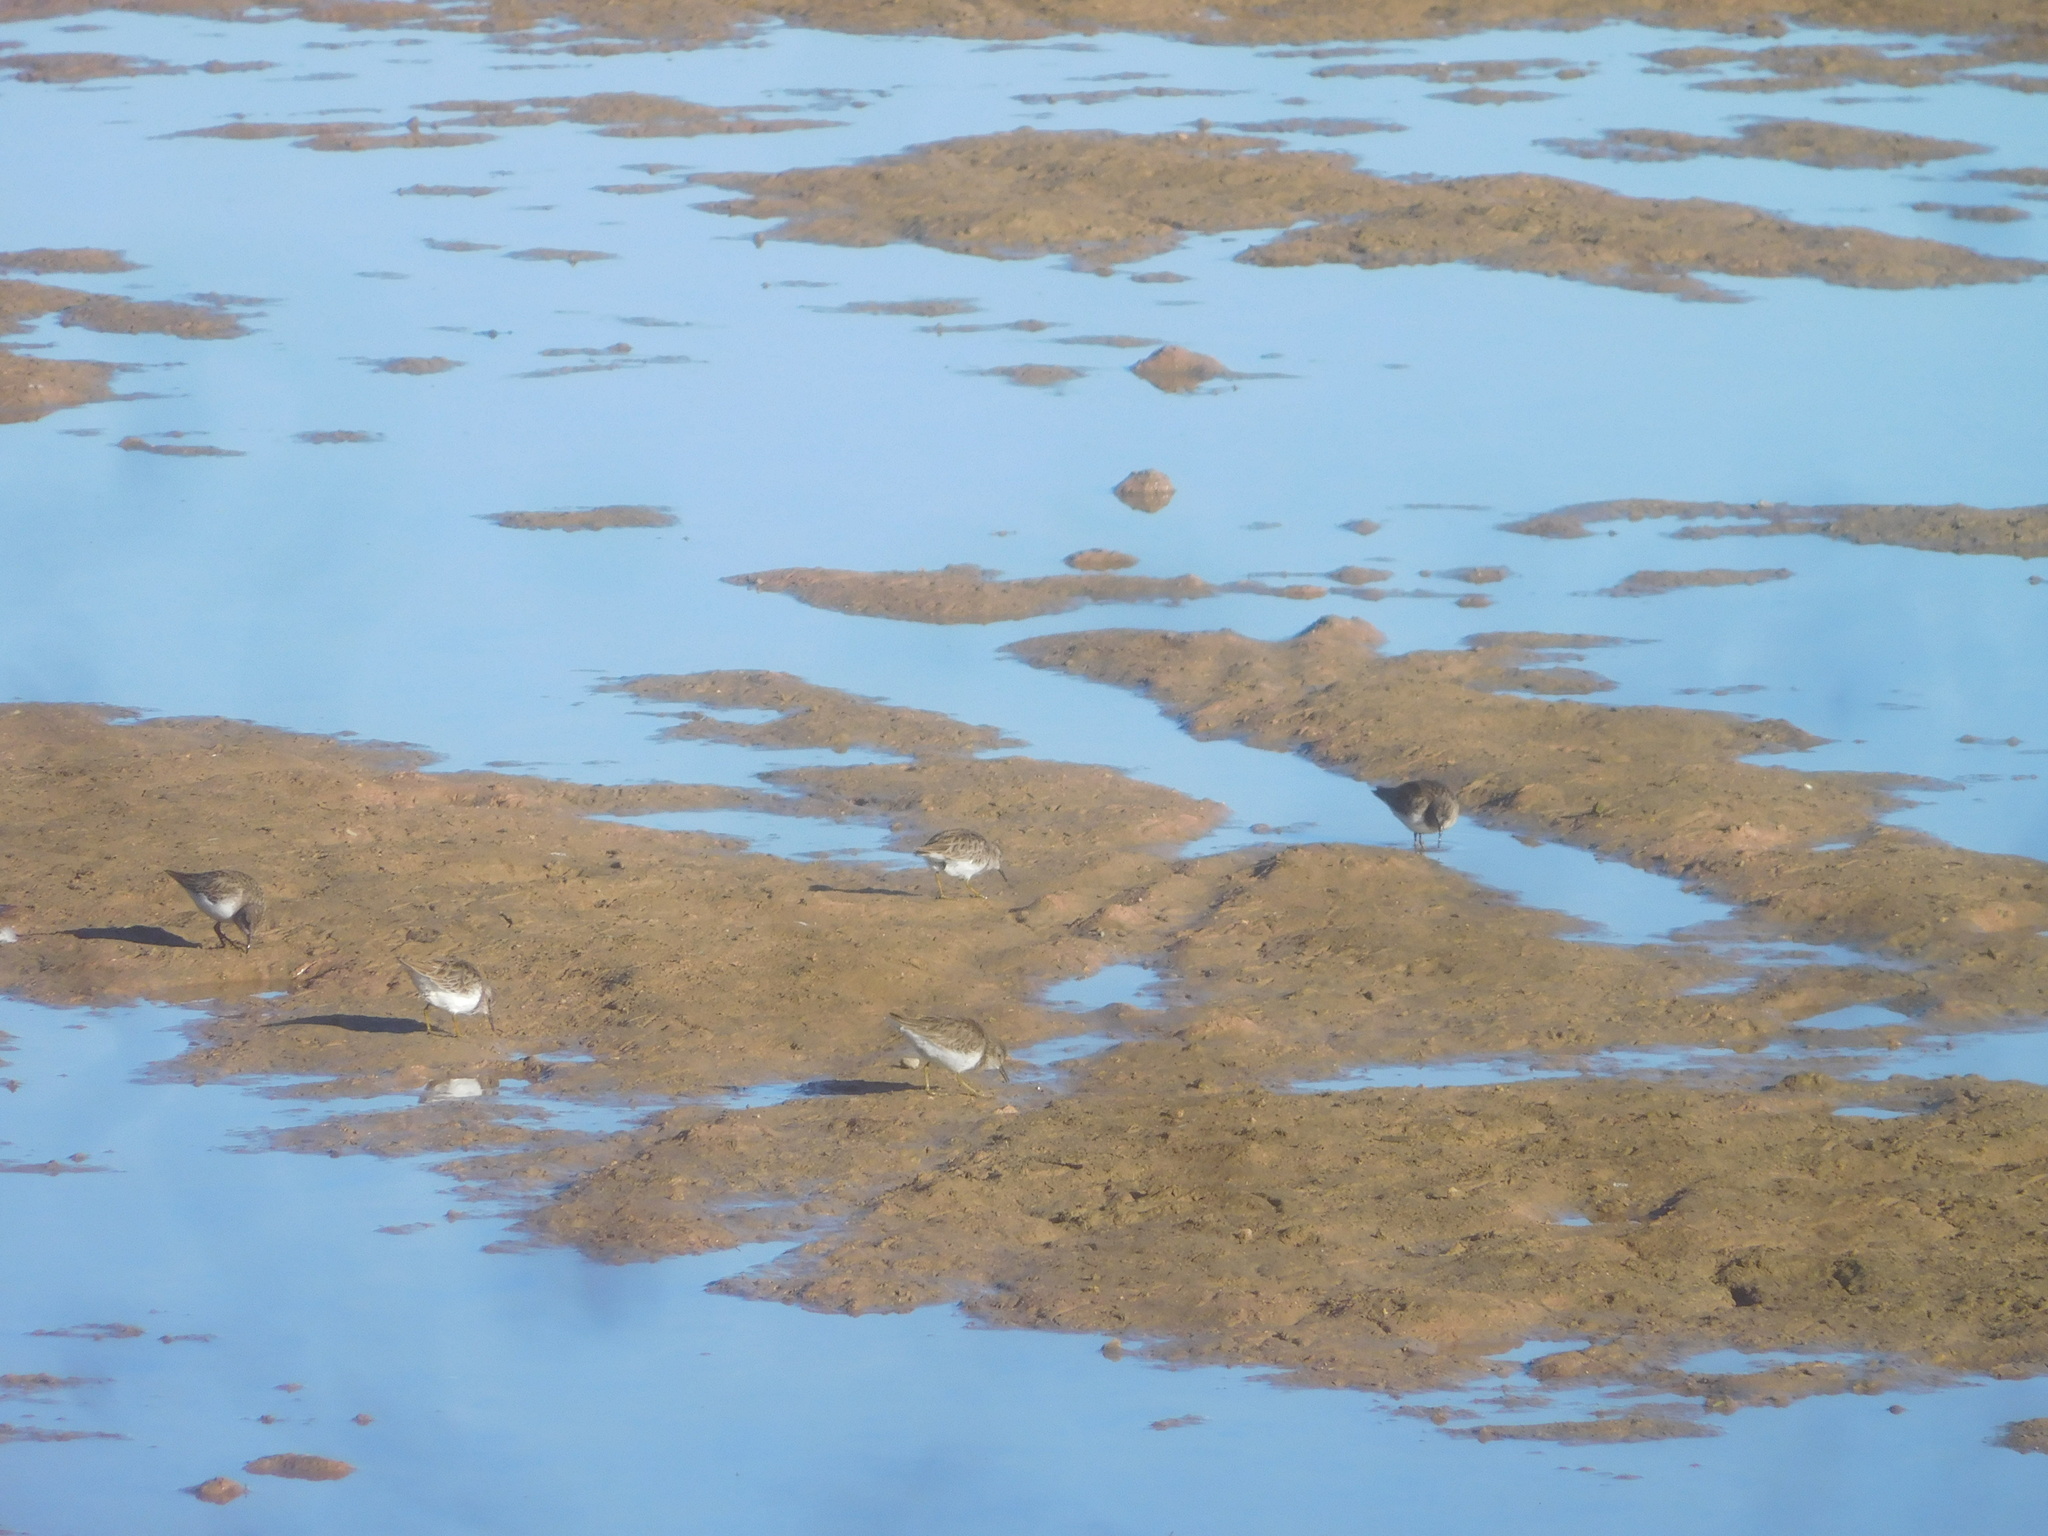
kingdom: Animalia
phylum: Chordata
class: Aves
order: Charadriiformes
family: Scolopacidae
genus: Calidris
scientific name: Calidris minutilla
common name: Least sandpiper
